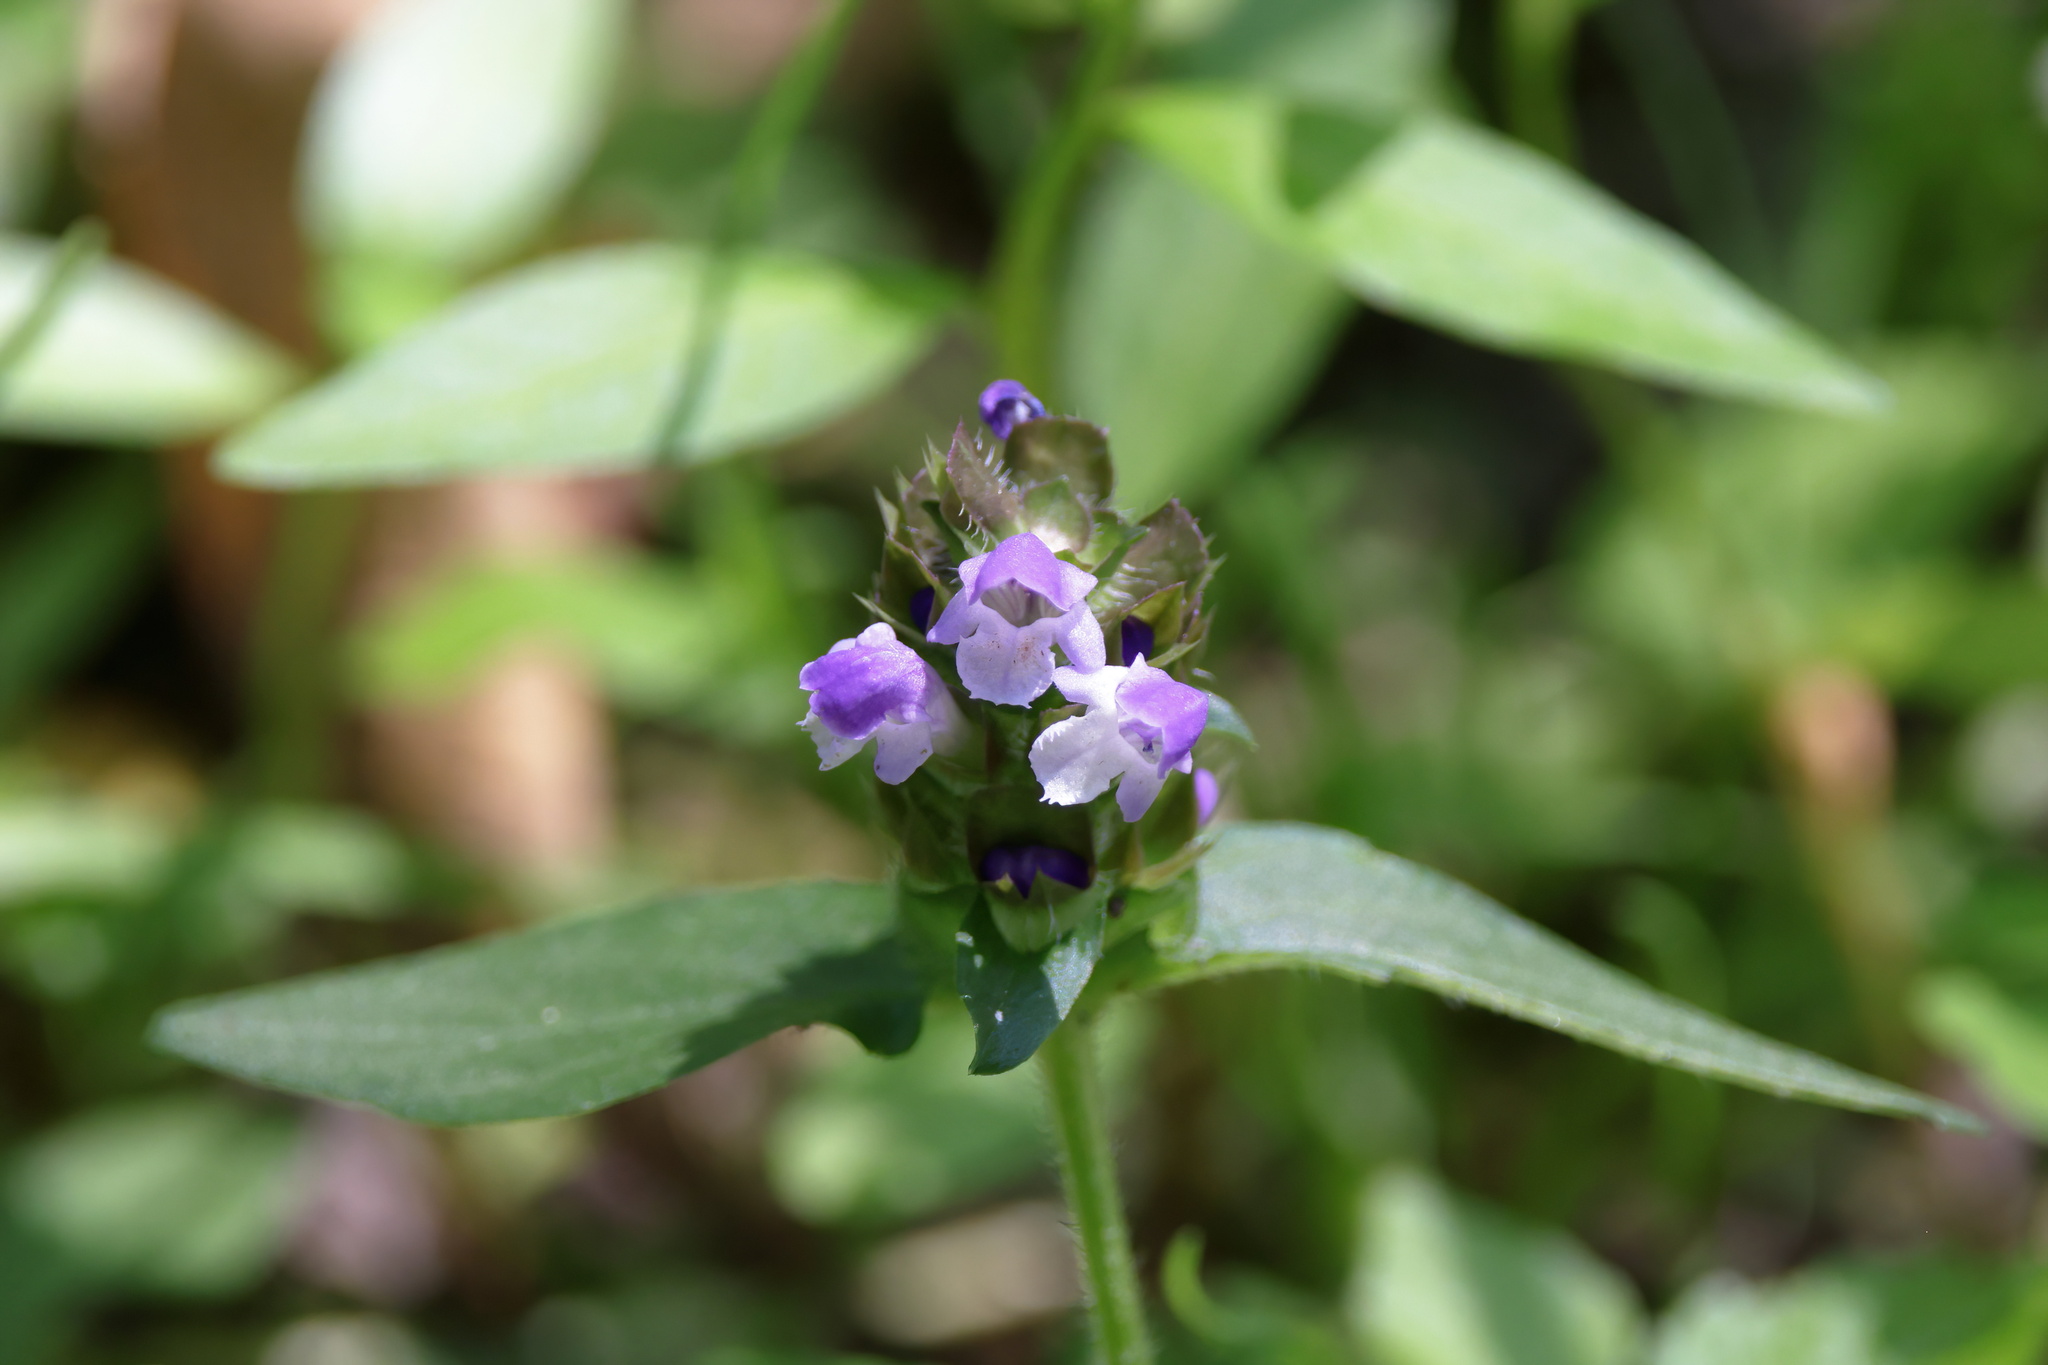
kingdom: Plantae
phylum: Tracheophyta
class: Magnoliopsida
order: Lamiales
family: Lamiaceae
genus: Prunella
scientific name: Prunella vulgaris
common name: Heal-all
